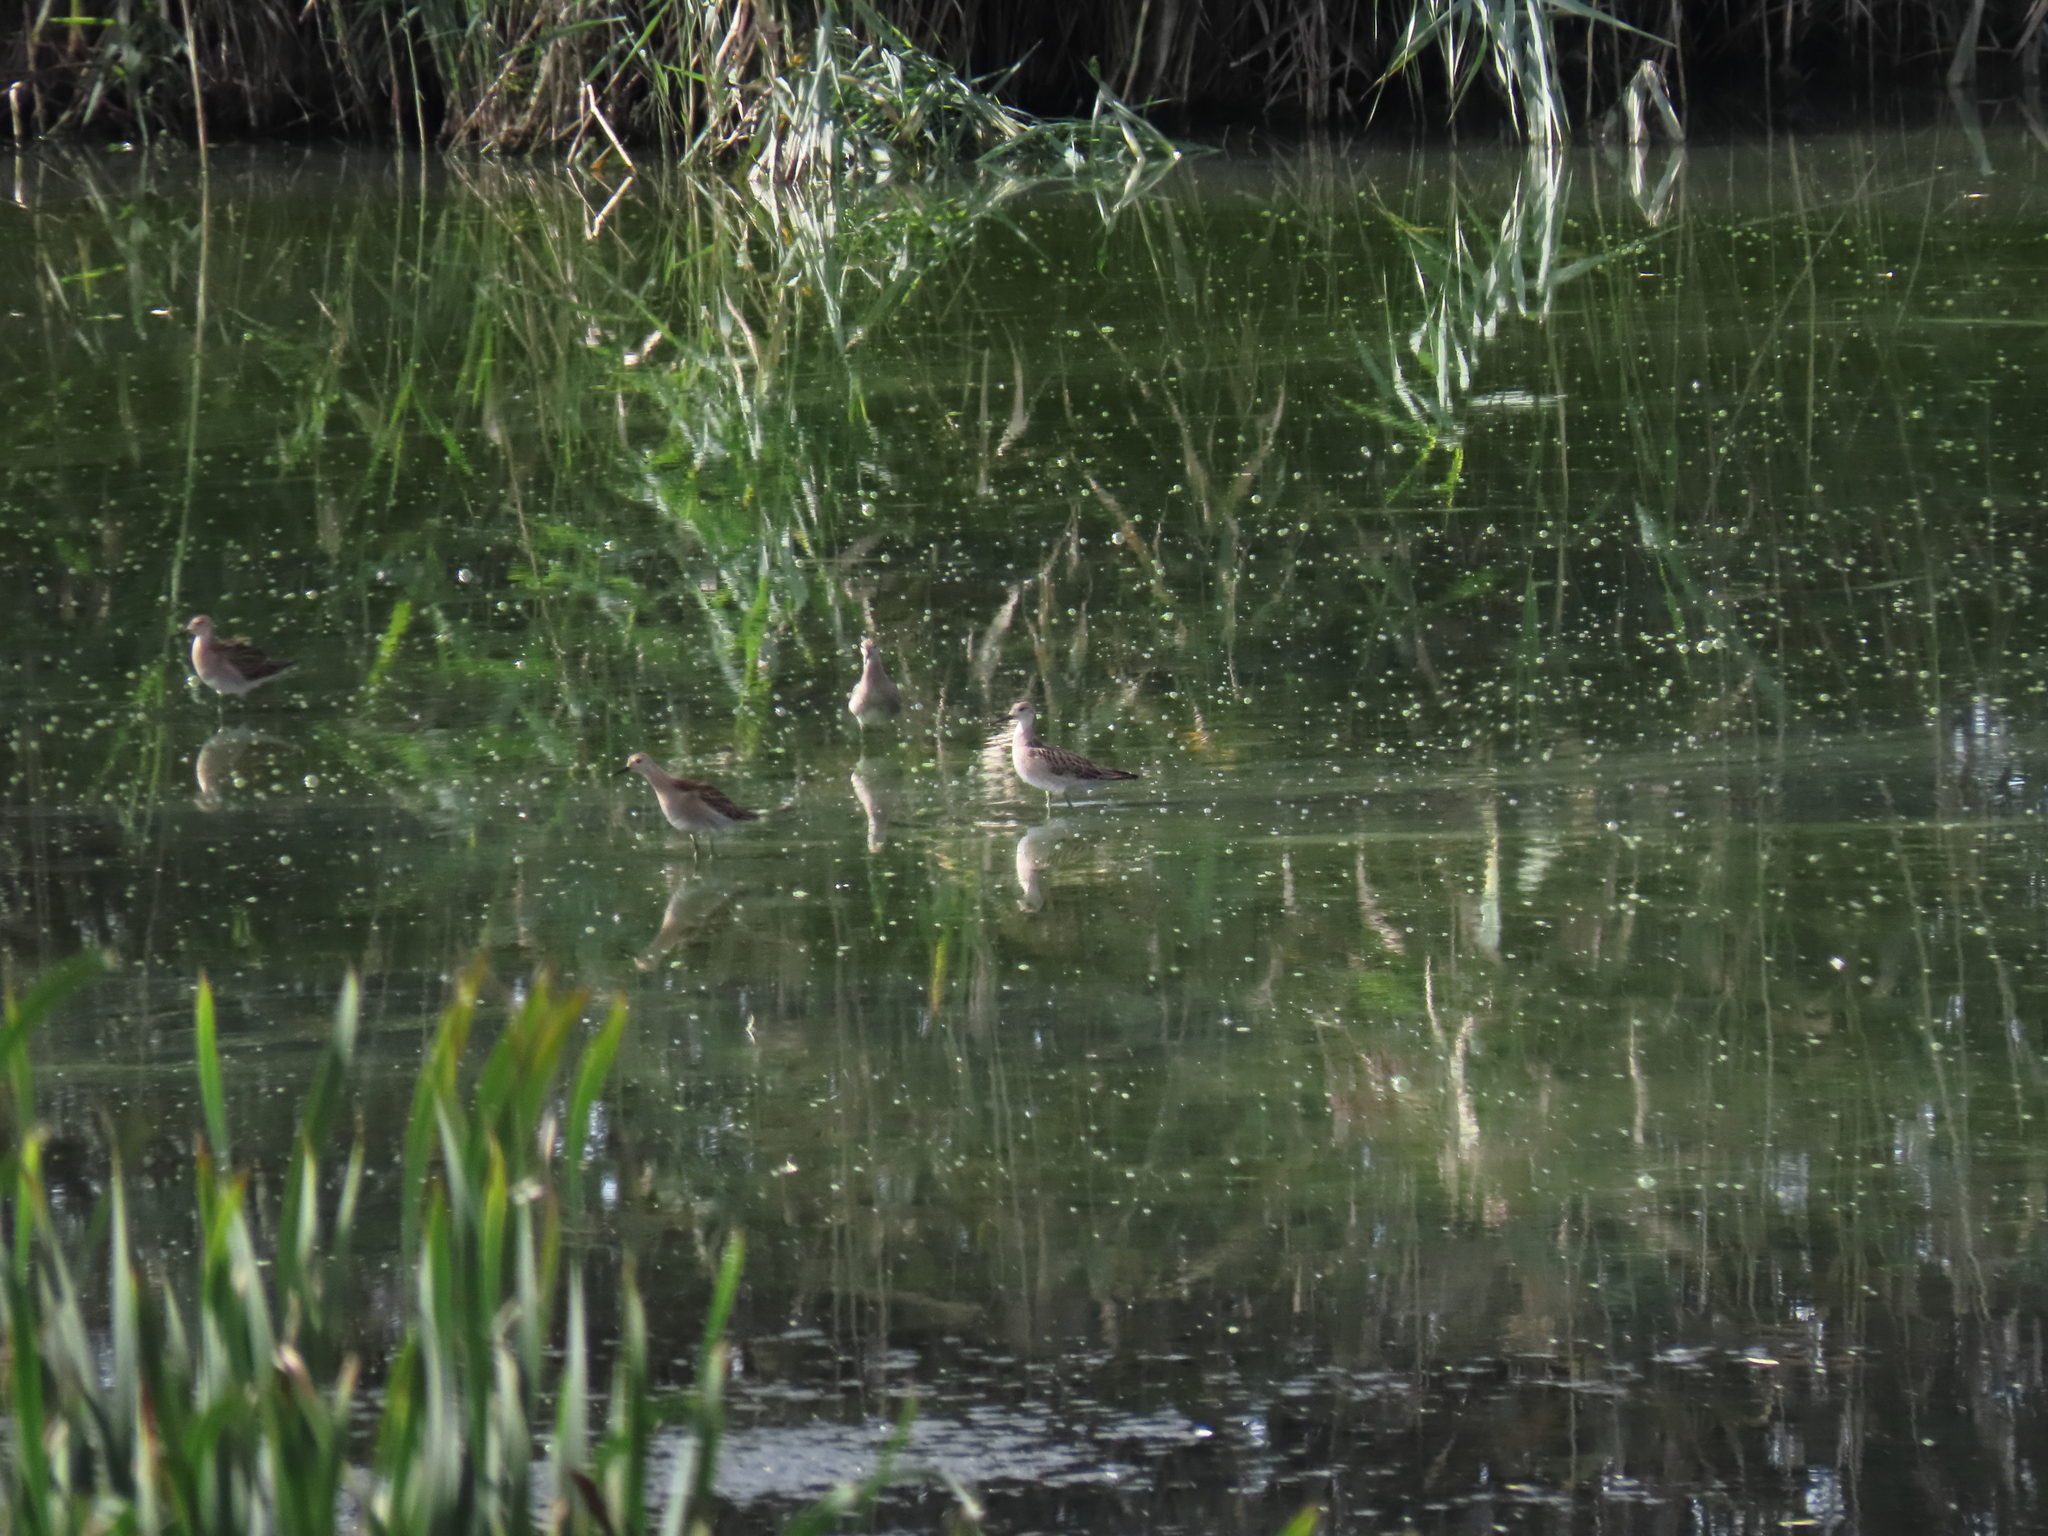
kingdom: Animalia
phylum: Chordata
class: Aves
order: Charadriiformes
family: Scolopacidae
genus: Calidris
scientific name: Calidris pugnax
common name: Ruff
